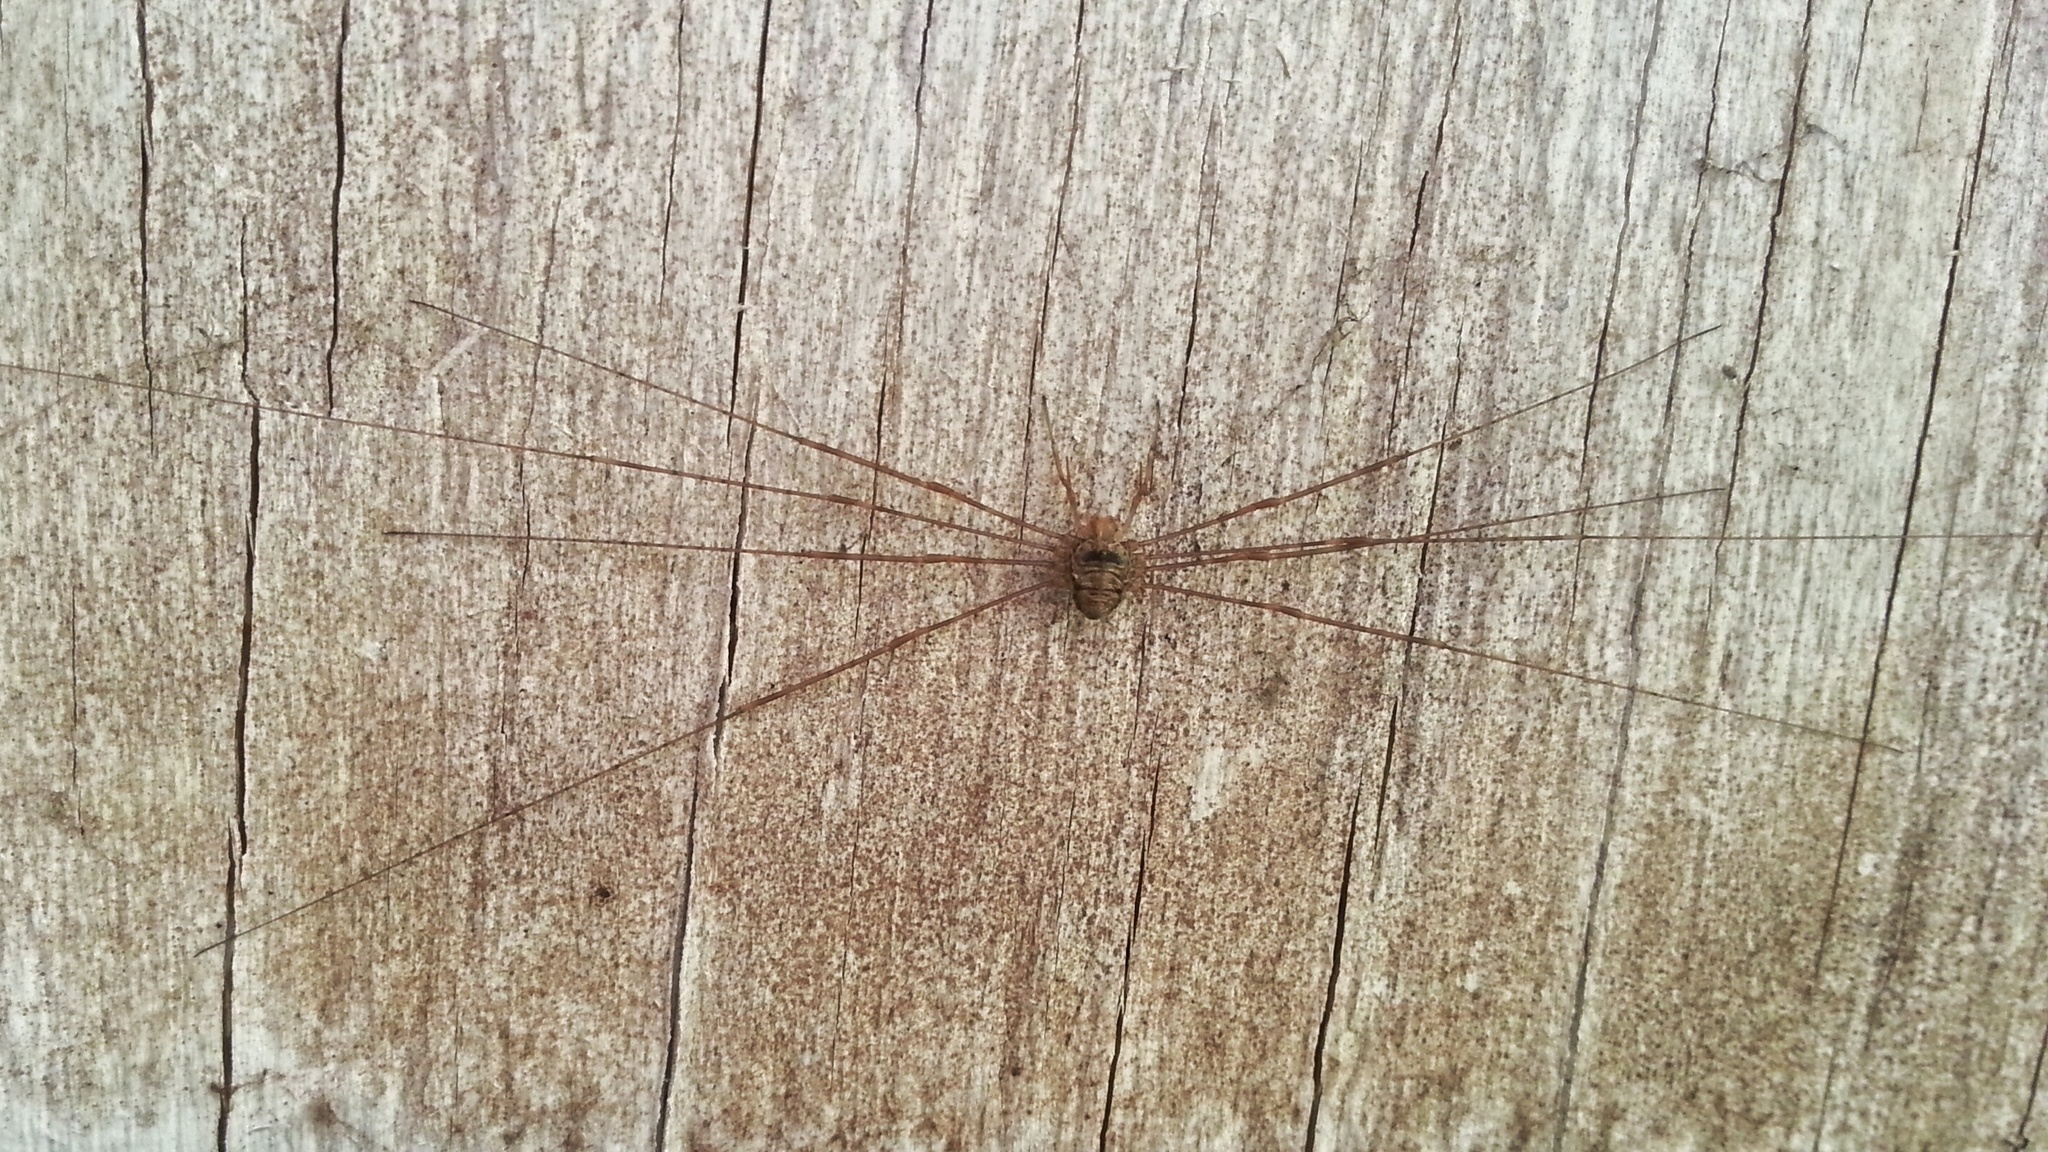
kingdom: Animalia
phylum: Arthropoda
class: Arachnida
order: Opiliones
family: Phalangiidae
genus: Dicranopalpus
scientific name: Dicranopalpus ramosus
